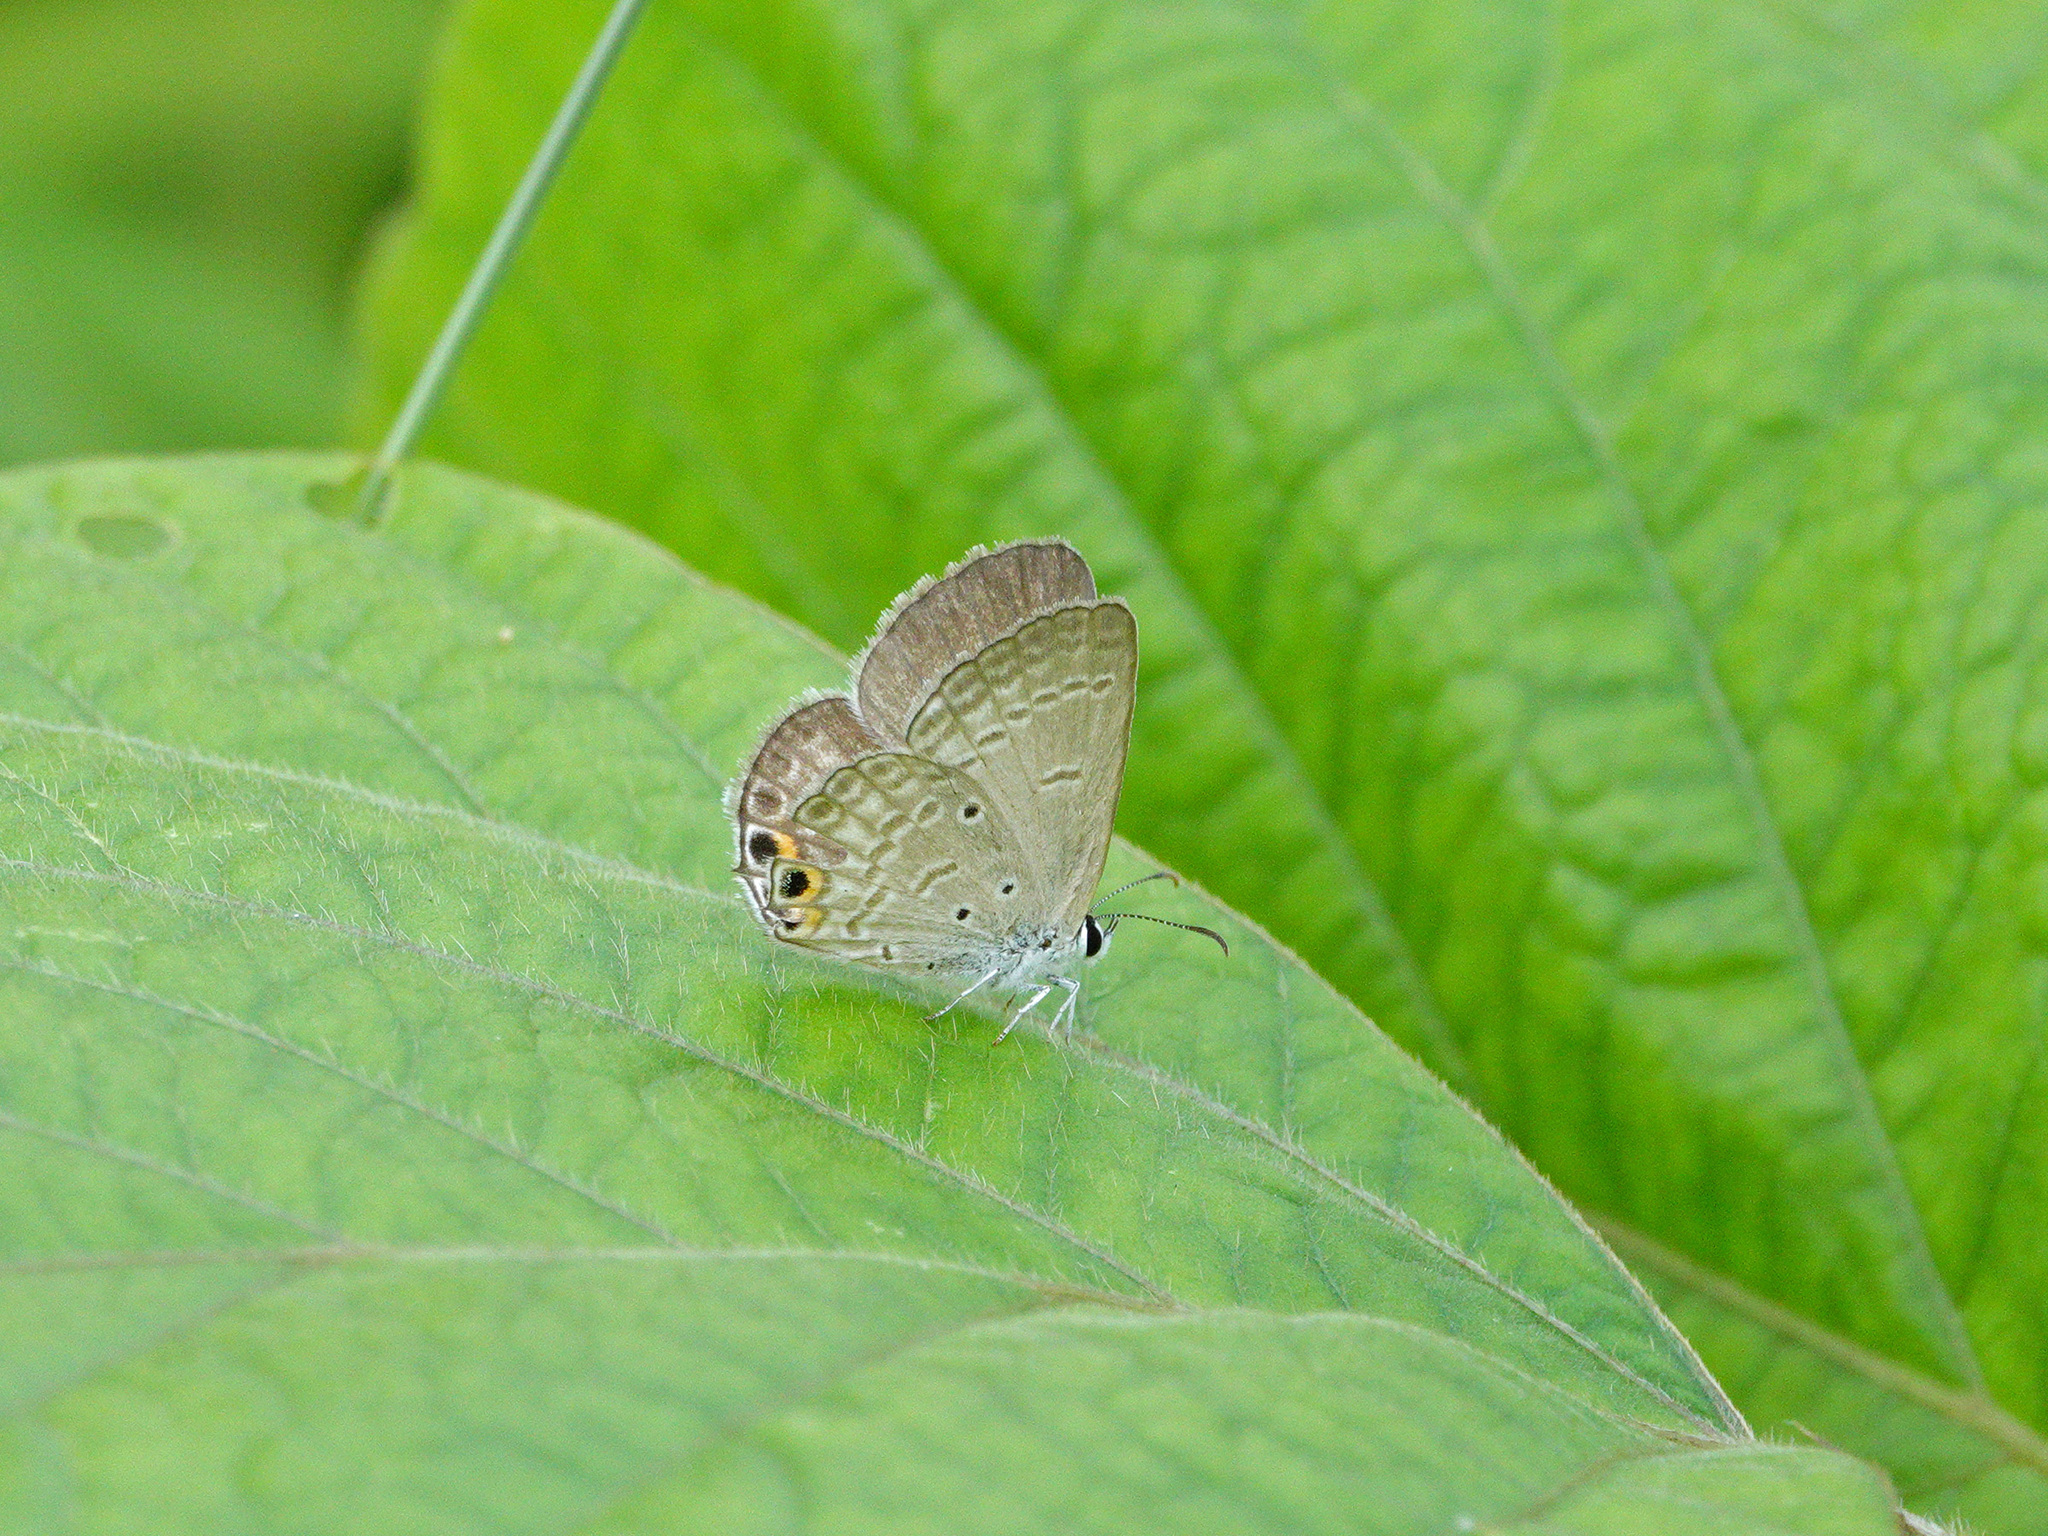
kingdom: Animalia
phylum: Arthropoda
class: Insecta
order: Lepidoptera
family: Lycaenidae
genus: Euchrysops
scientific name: Euchrysops cnejus
